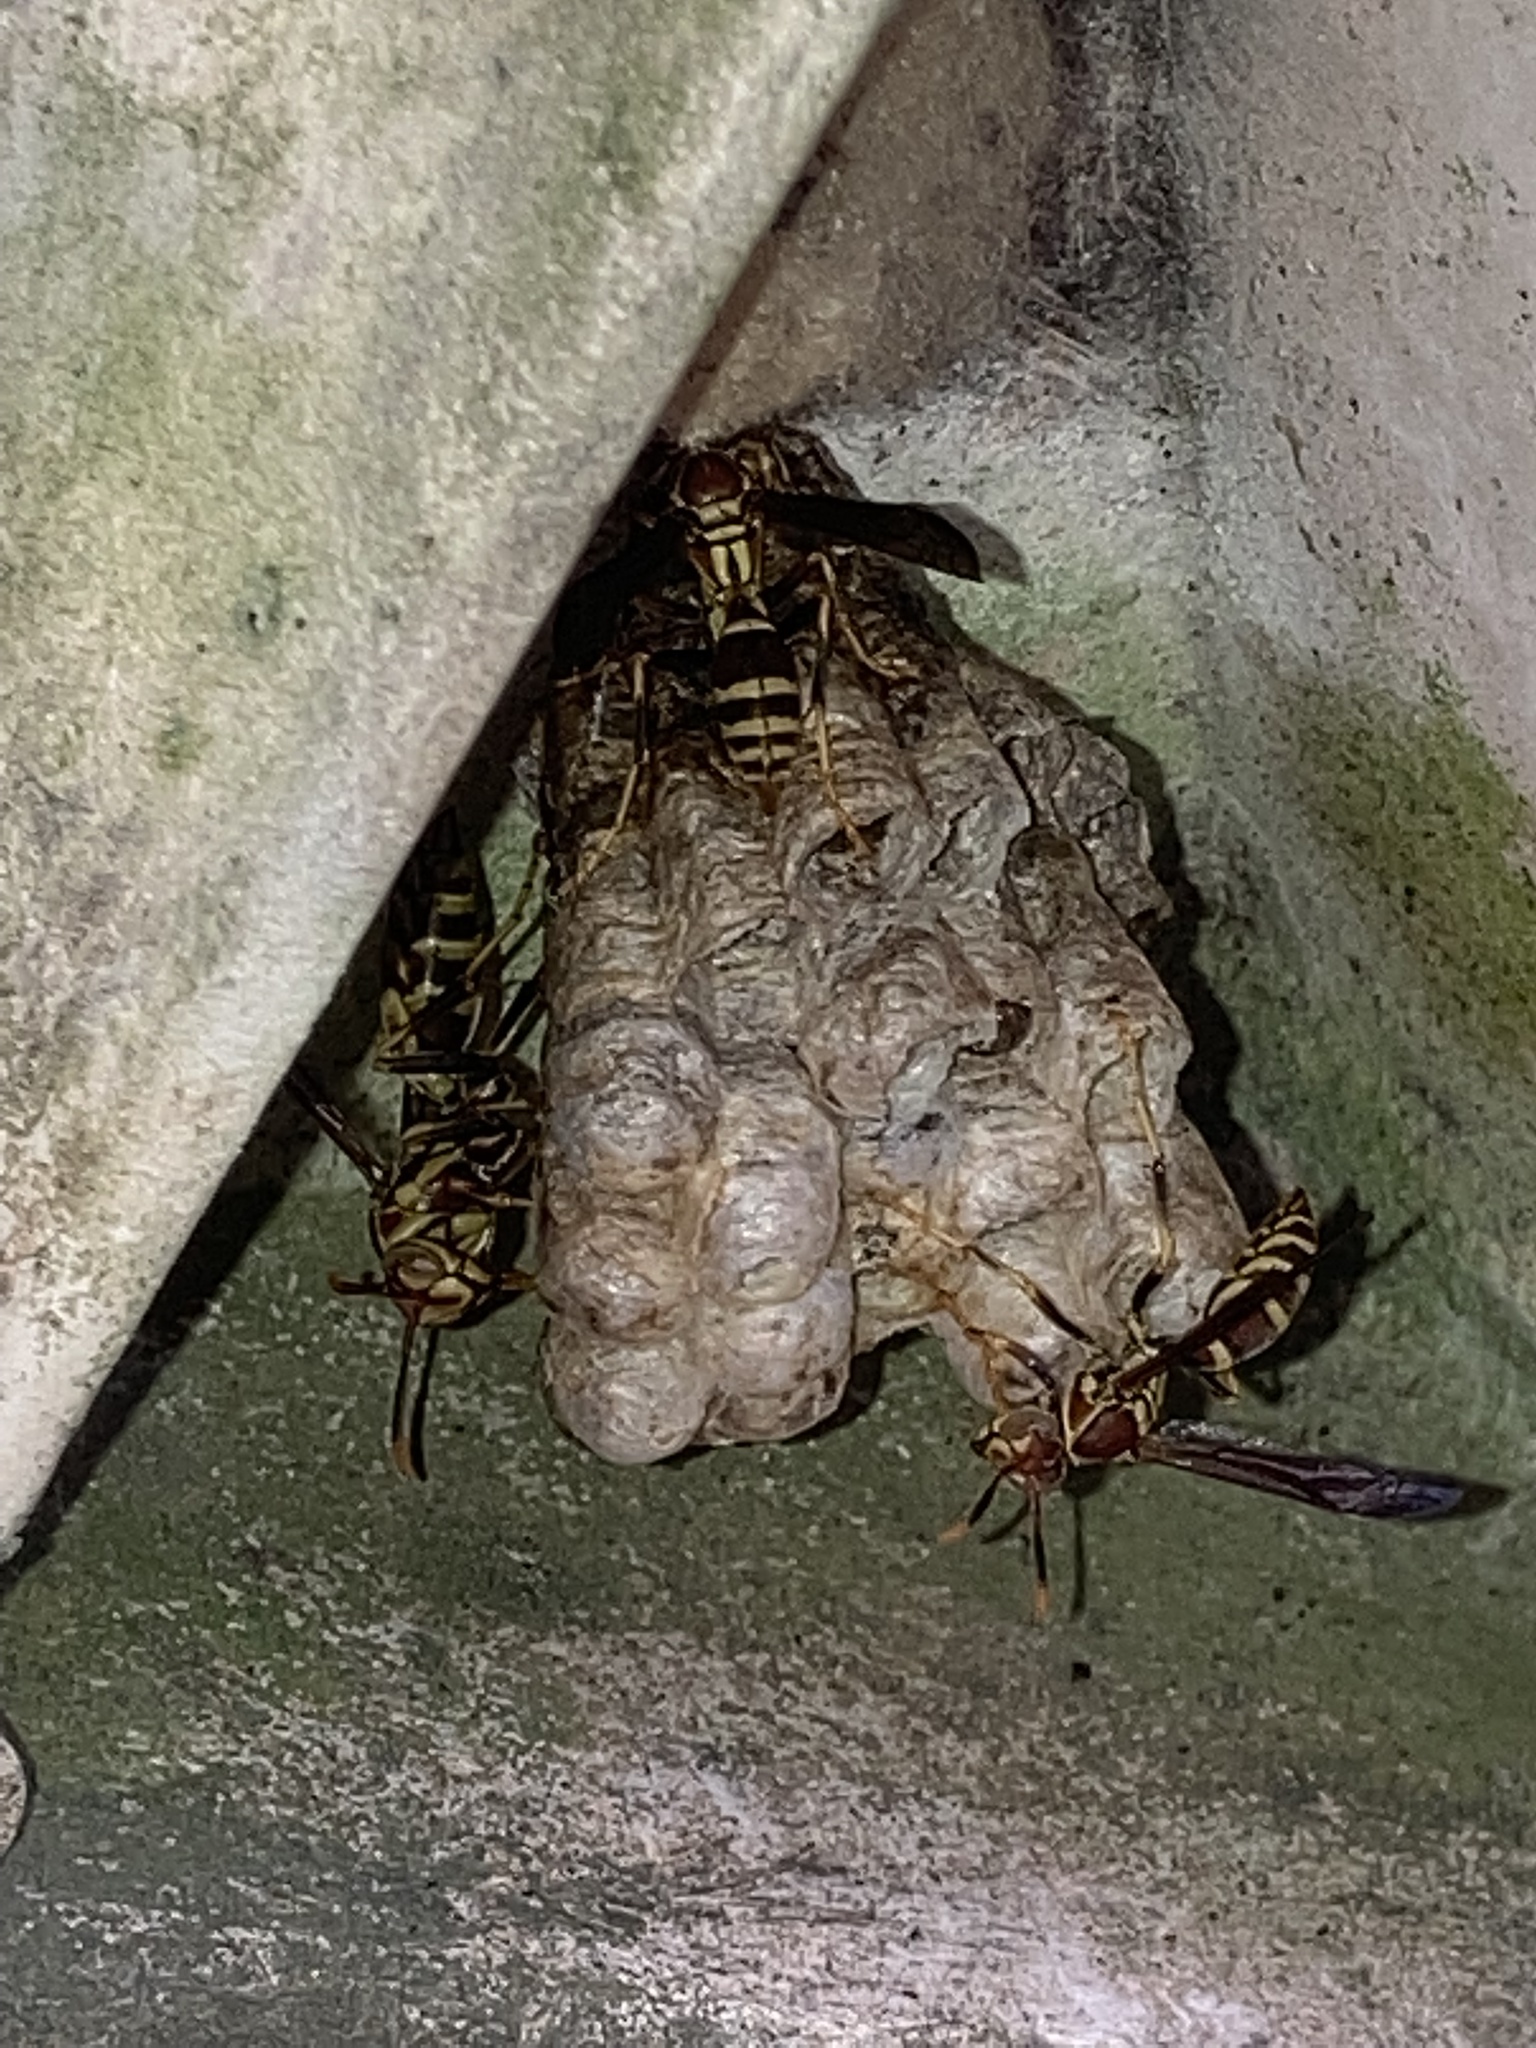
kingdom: Animalia
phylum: Arthropoda
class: Insecta
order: Hymenoptera
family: Eumenidae
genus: Polistes
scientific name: Polistes exclamans
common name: Paper wasp
